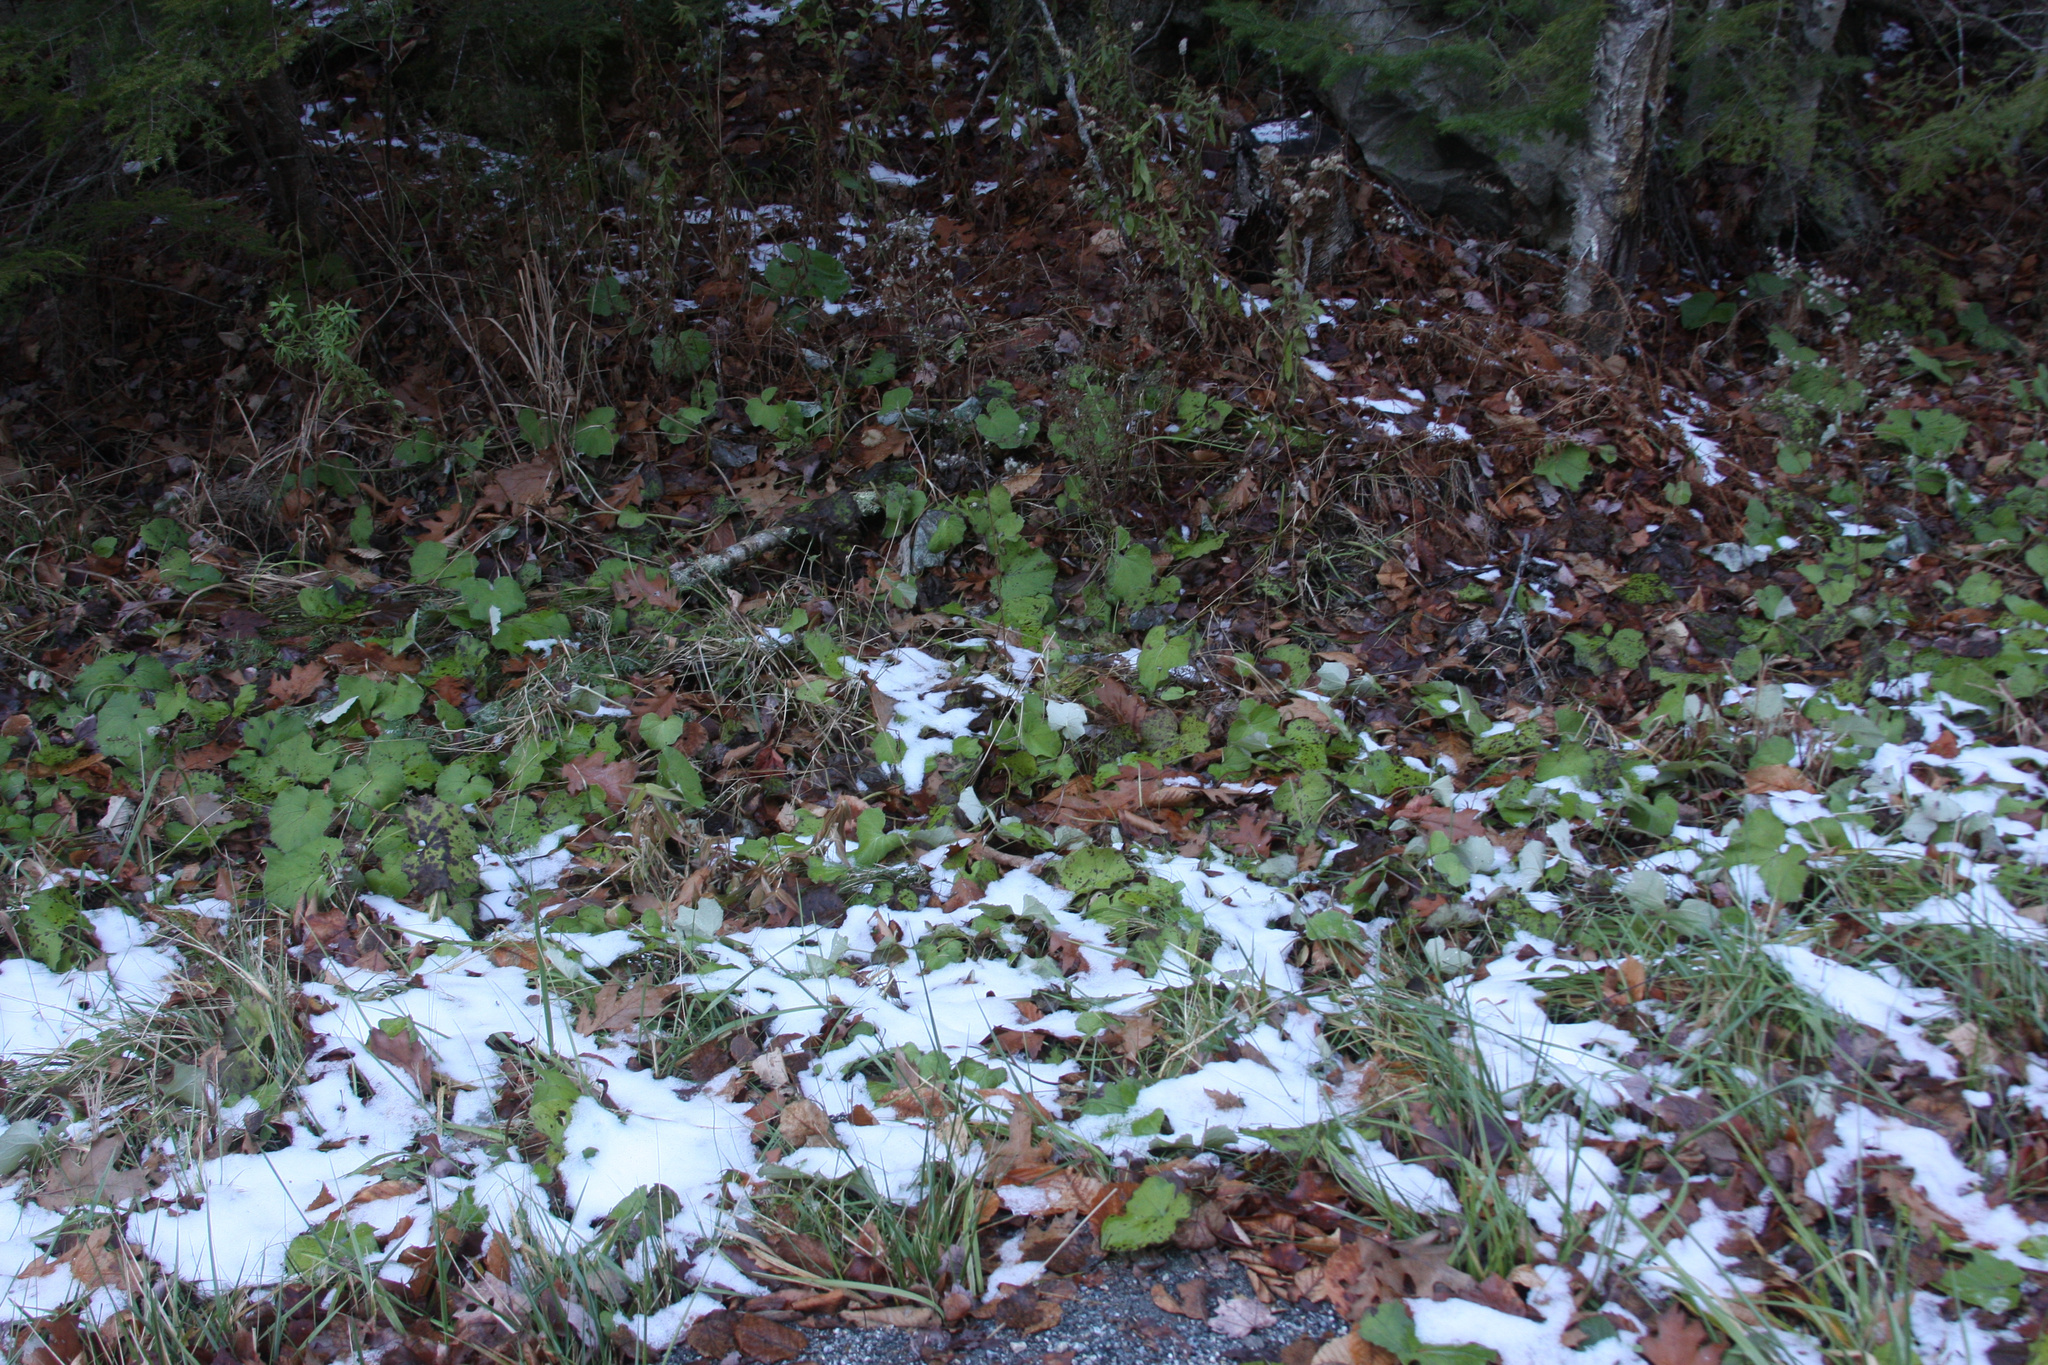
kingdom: Plantae
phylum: Tracheophyta
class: Magnoliopsida
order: Asterales
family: Asteraceae
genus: Tussilago
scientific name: Tussilago farfara
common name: Coltsfoot
